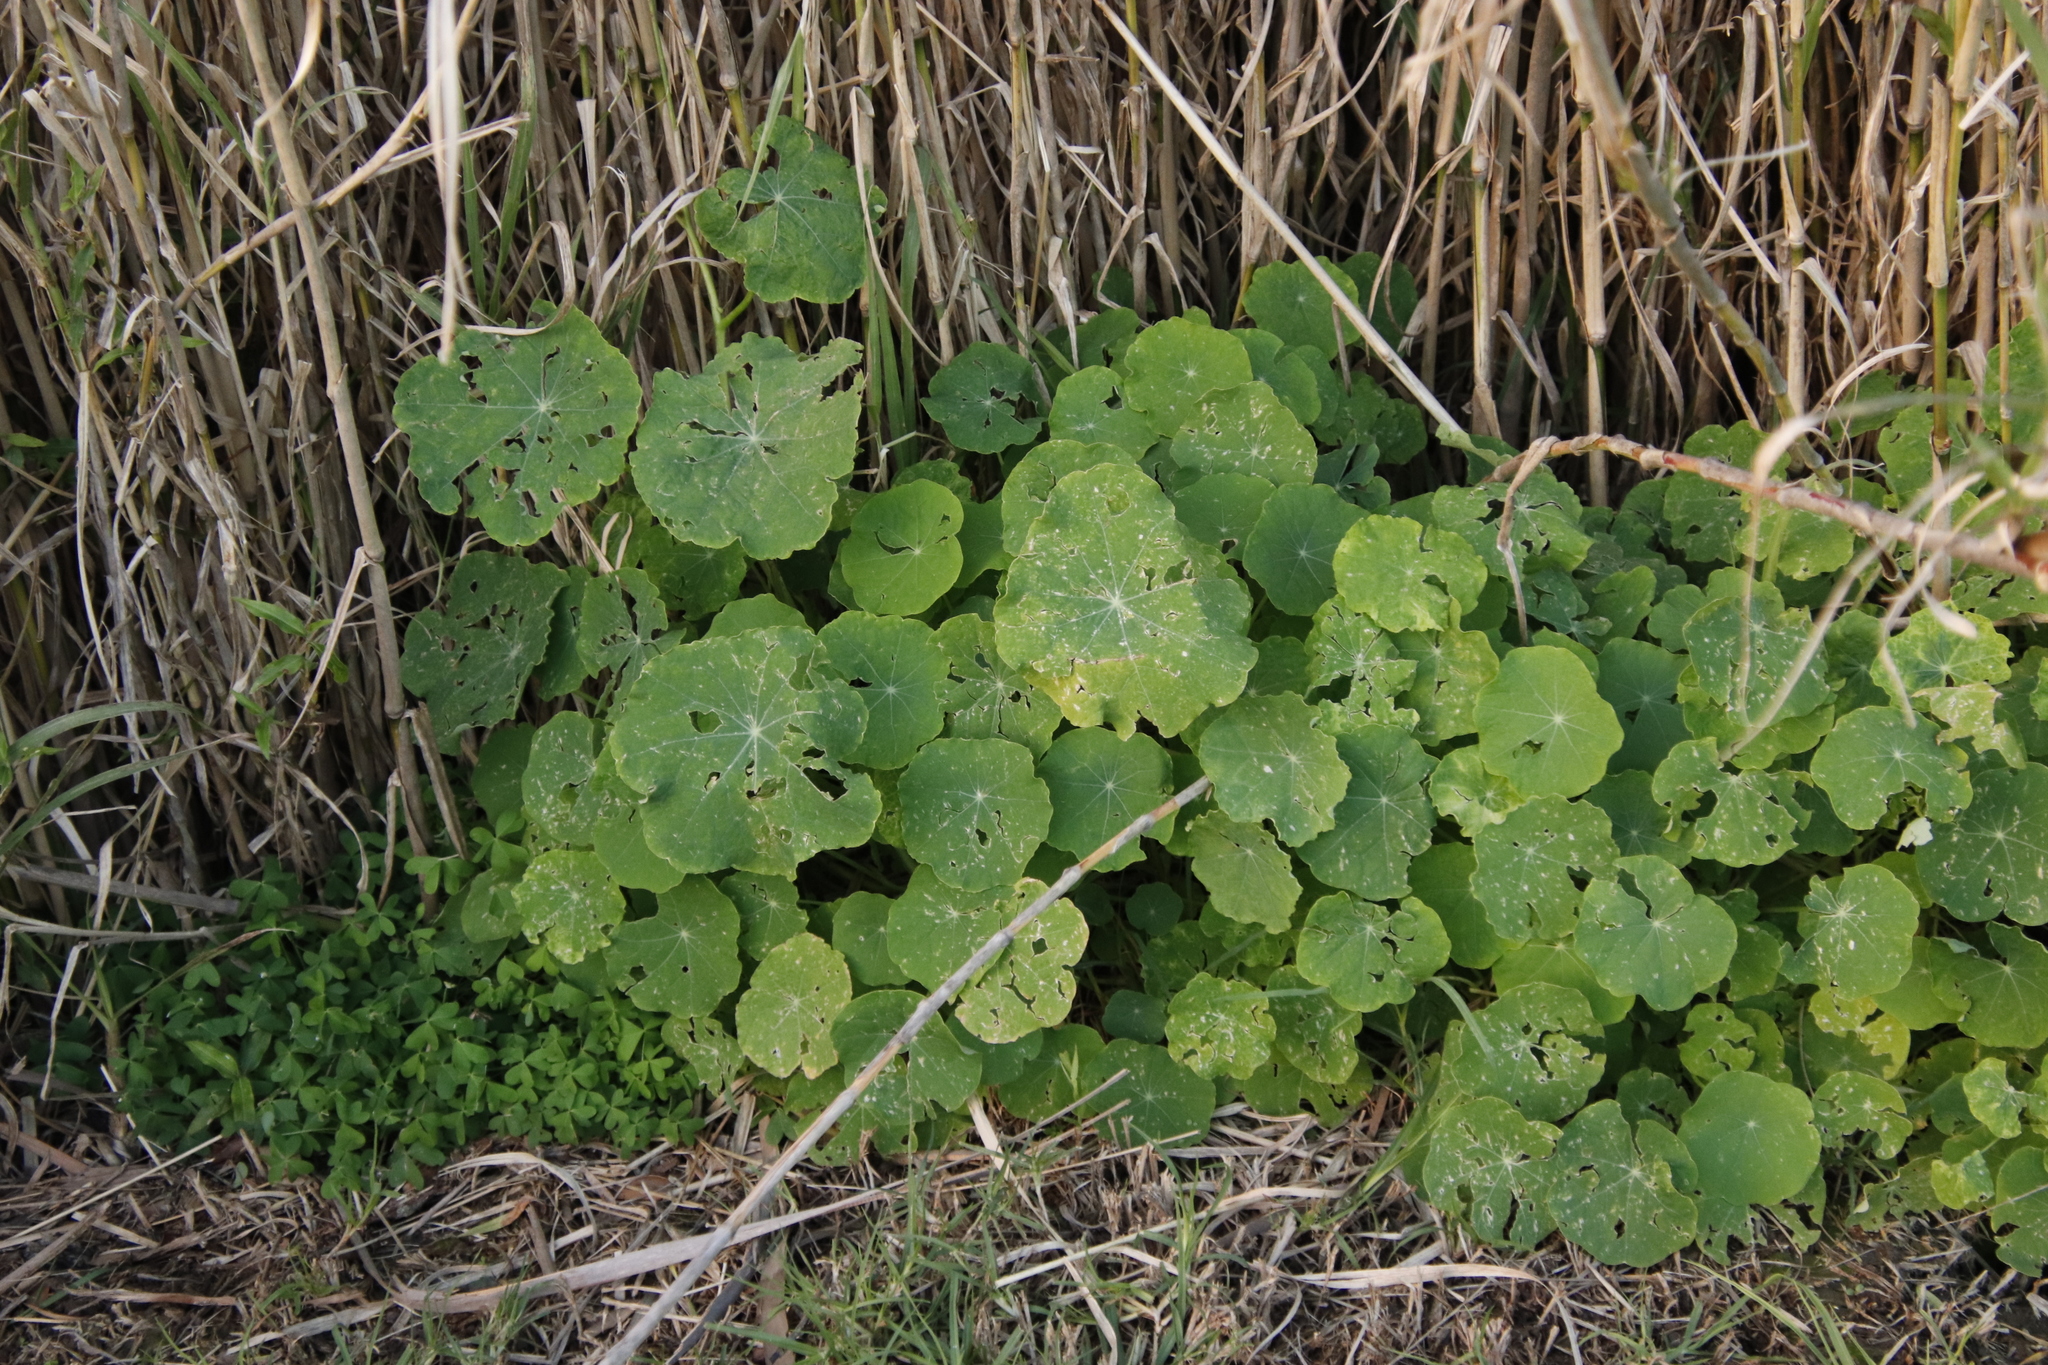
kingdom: Plantae
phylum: Tracheophyta
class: Magnoliopsida
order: Brassicales
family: Tropaeolaceae
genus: Tropaeolum
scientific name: Tropaeolum majus
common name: Nasturtium
